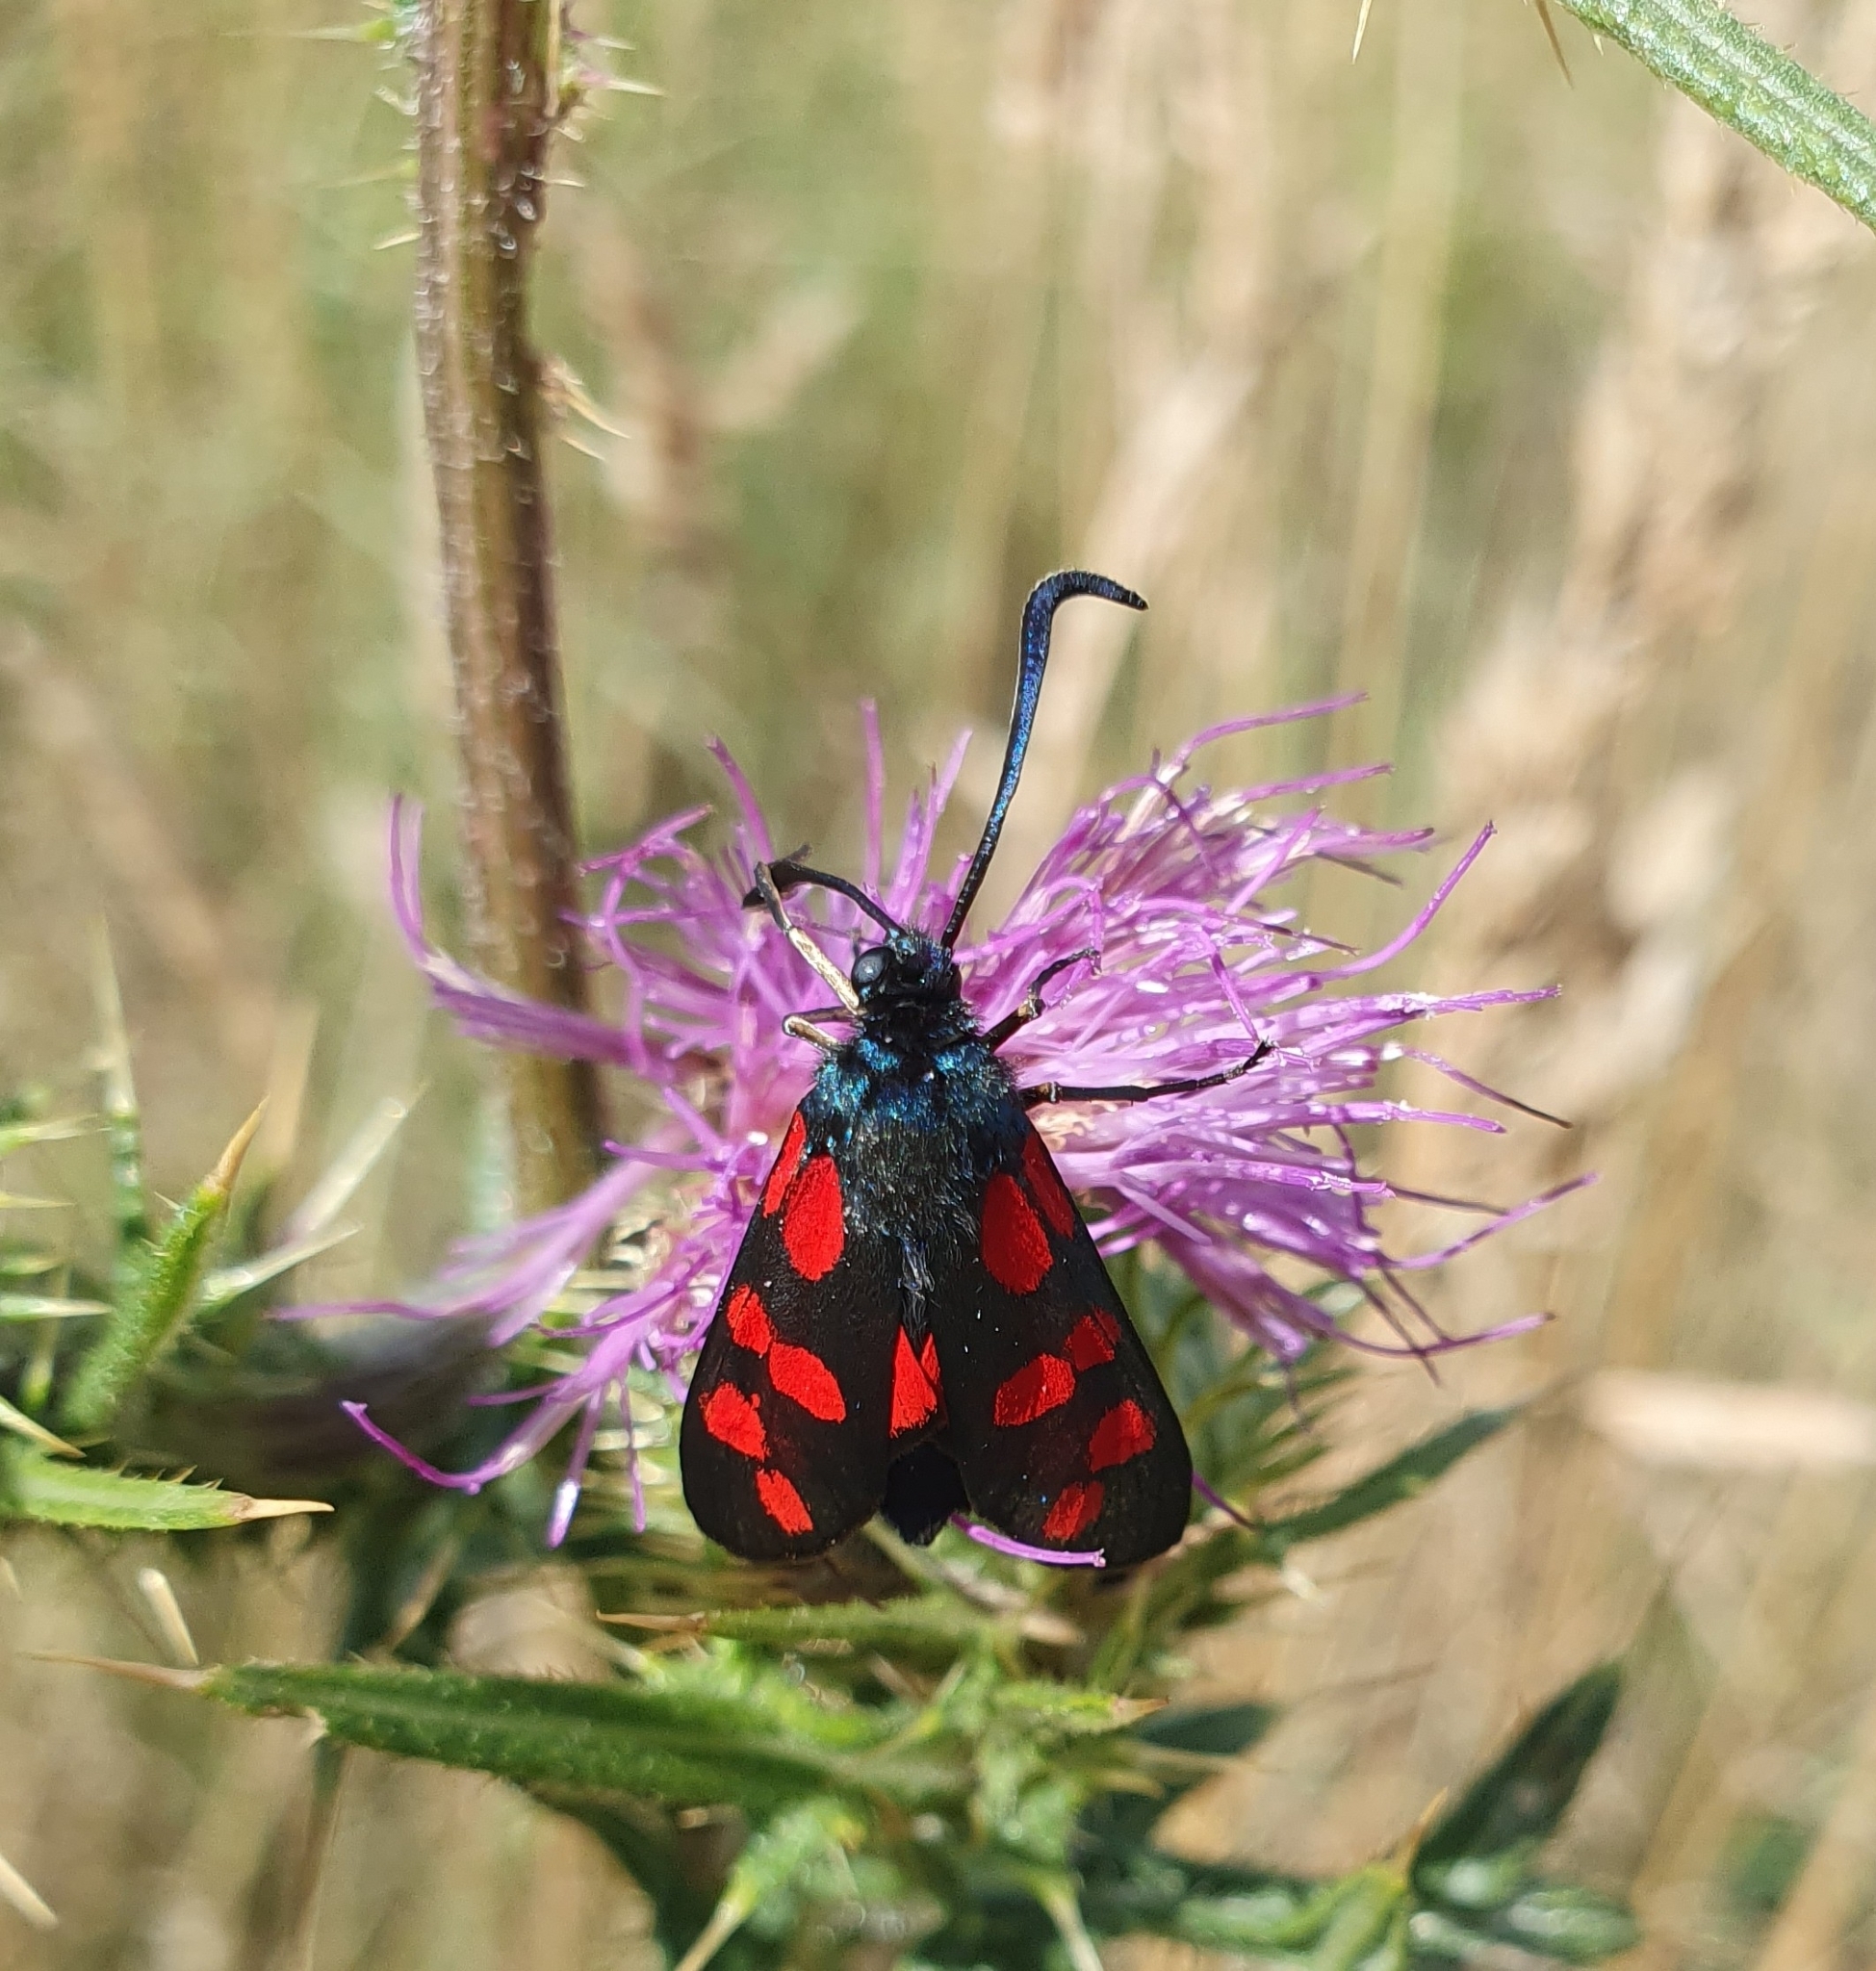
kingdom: Animalia
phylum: Arthropoda
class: Insecta
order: Lepidoptera
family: Zygaenidae
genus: Zygaena
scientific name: Zygaena filipendulae
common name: Six-spot burnet
